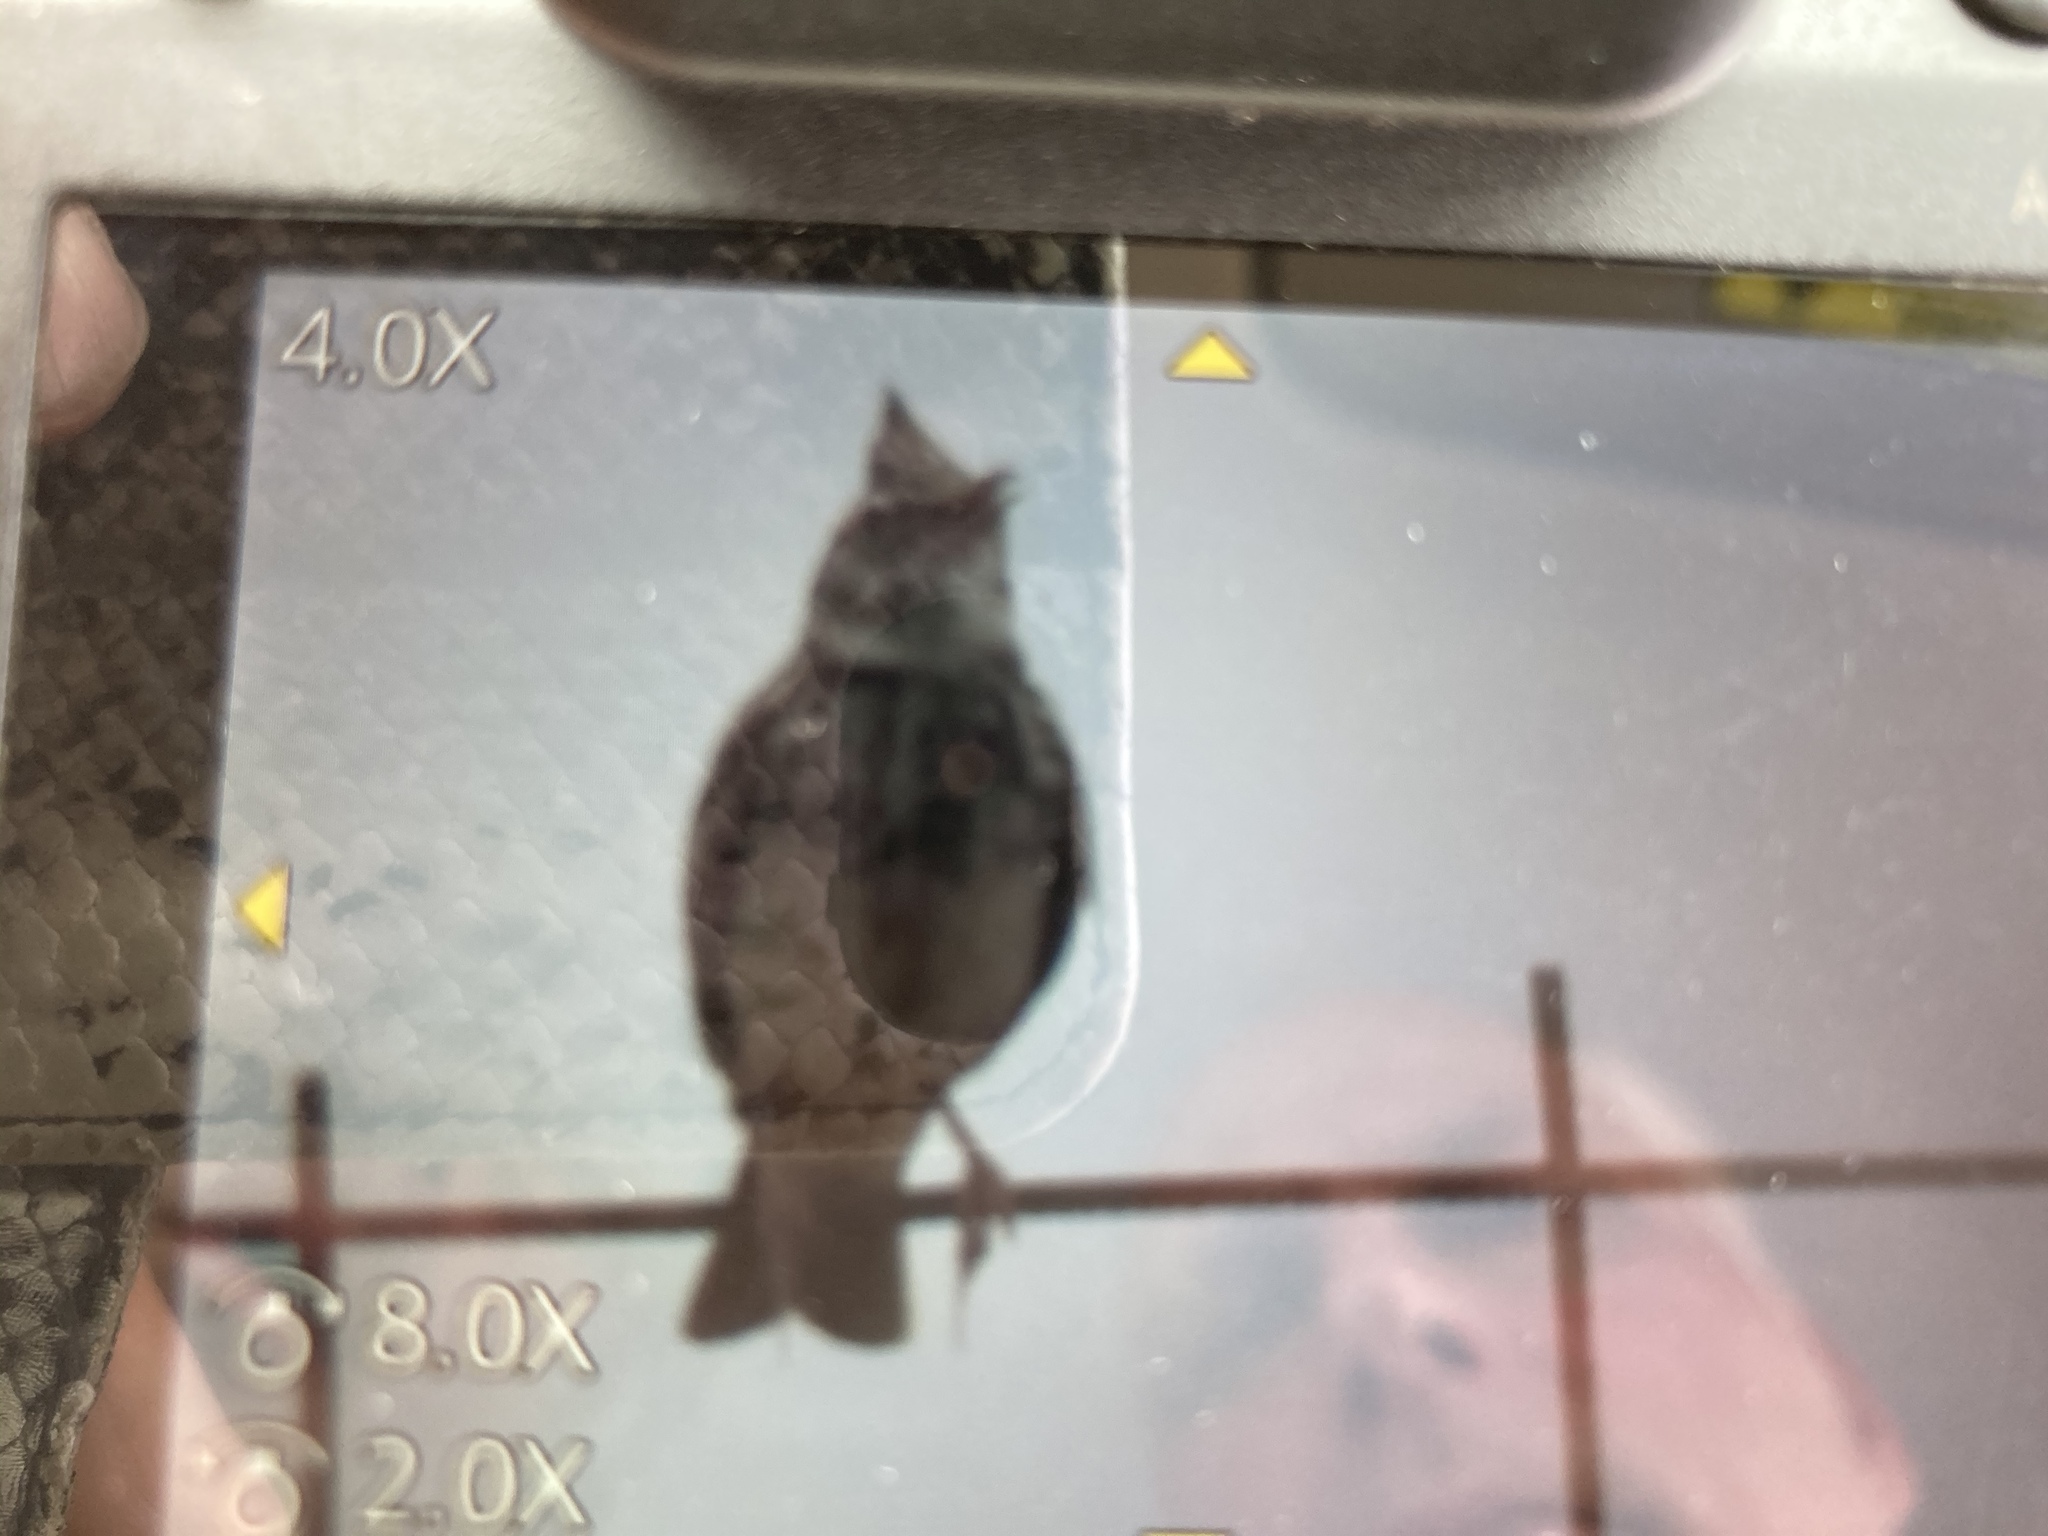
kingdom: Animalia
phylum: Chordata
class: Aves
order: Passeriformes
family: Alaudidae
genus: Galerida
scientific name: Galerida cristata
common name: Crested lark
